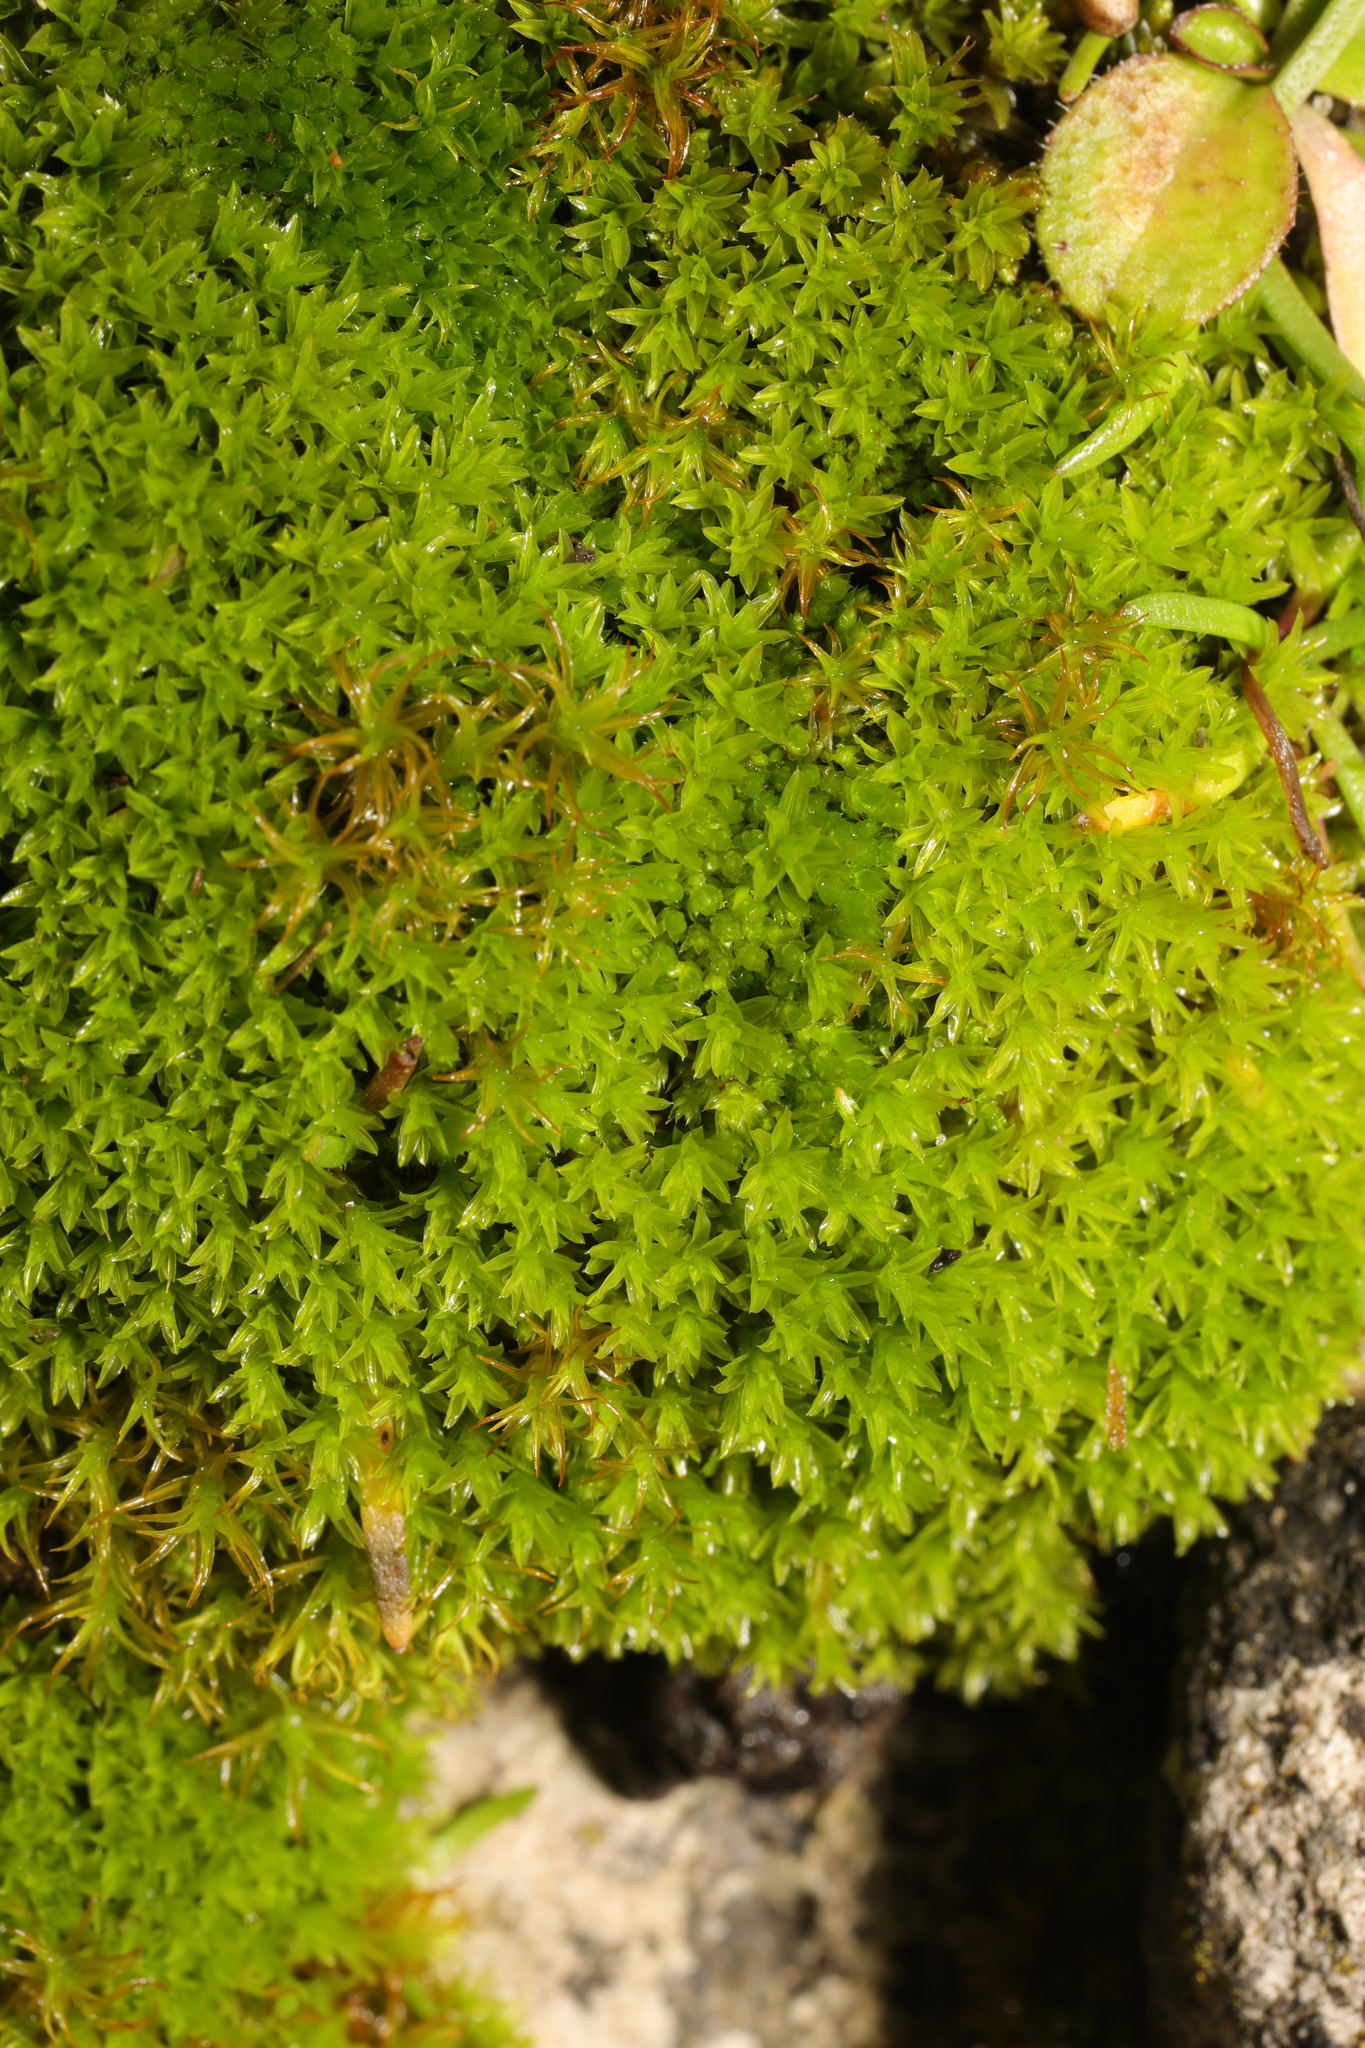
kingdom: Plantae
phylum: Bryophyta
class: Bryopsida
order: Pottiales
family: Pottiaceae
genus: Barbula
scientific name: Barbula unguiculata
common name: Prickly beard moss
